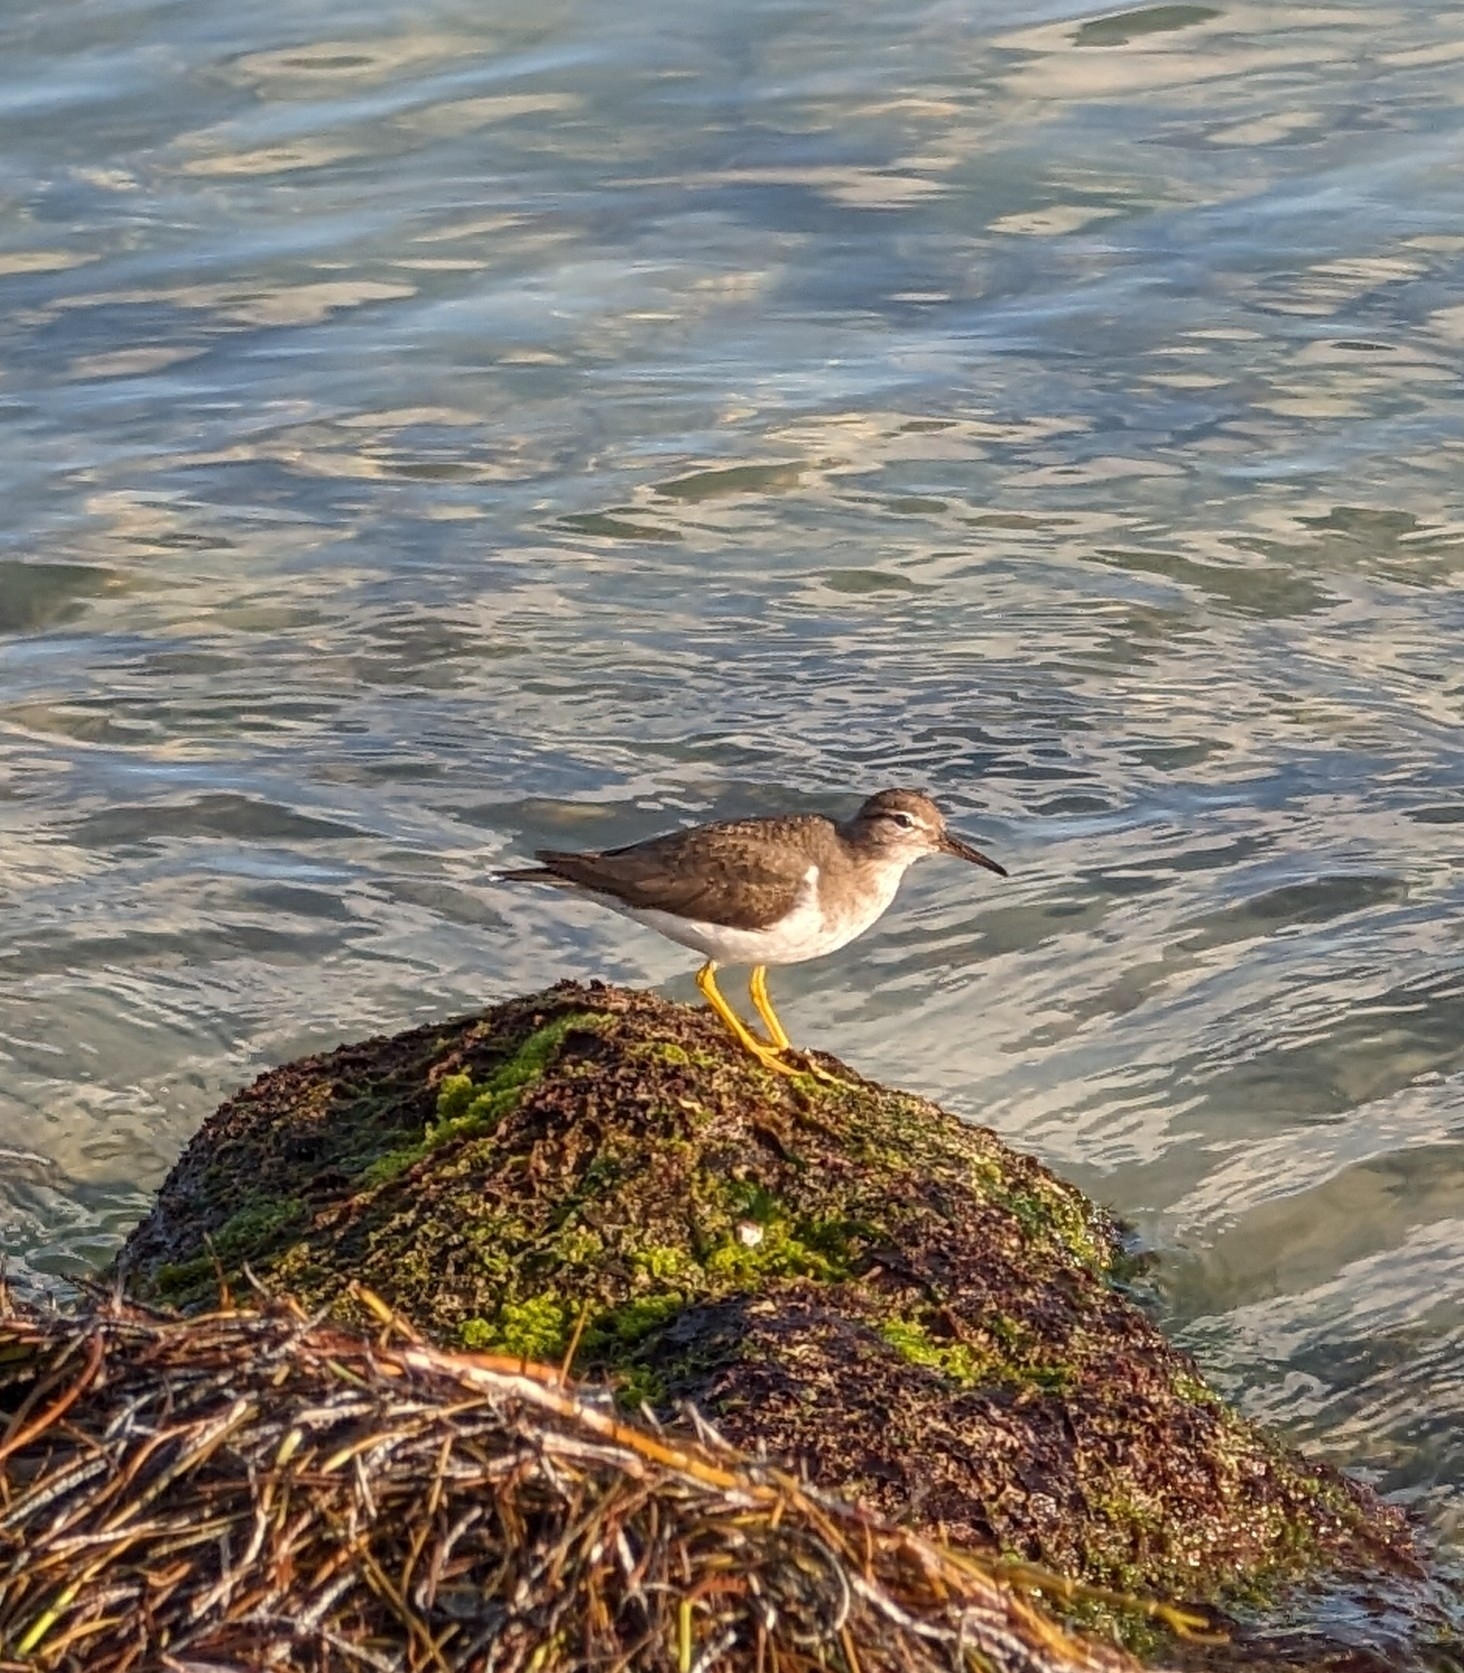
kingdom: Animalia
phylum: Chordata
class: Aves
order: Charadriiformes
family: Scolopacidae
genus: Actitis
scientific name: Actitis macularius
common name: Spotted sandpiper
